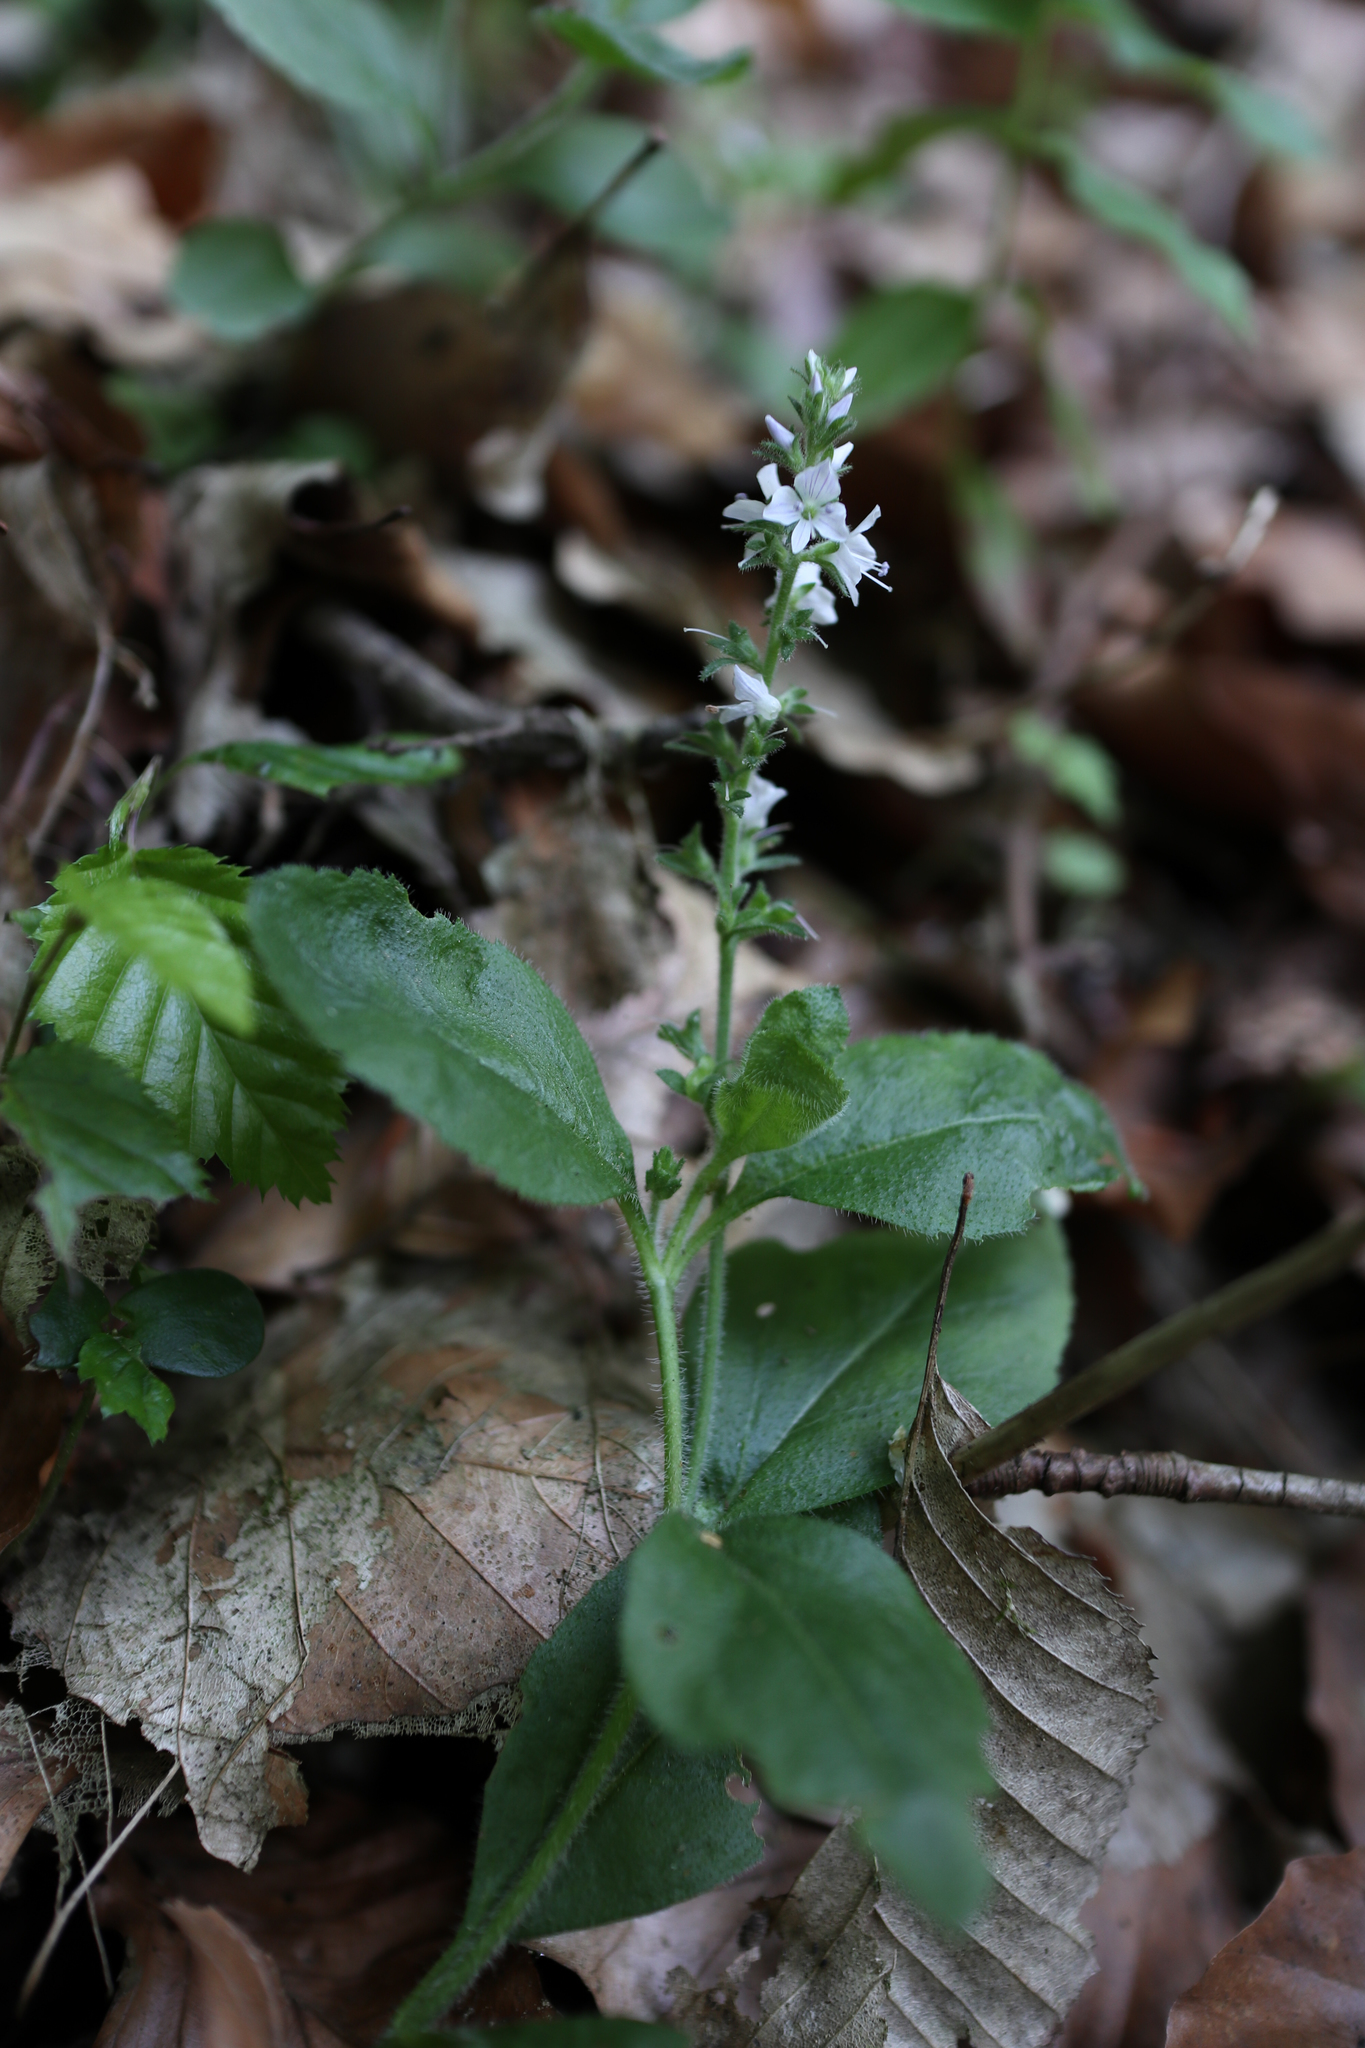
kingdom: Plantae
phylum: Tracheophyta
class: Magnoliopsida
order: Lamiales
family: Plantaginaceae
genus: Veronica
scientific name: Veronica officinalis
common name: Common speedwell
